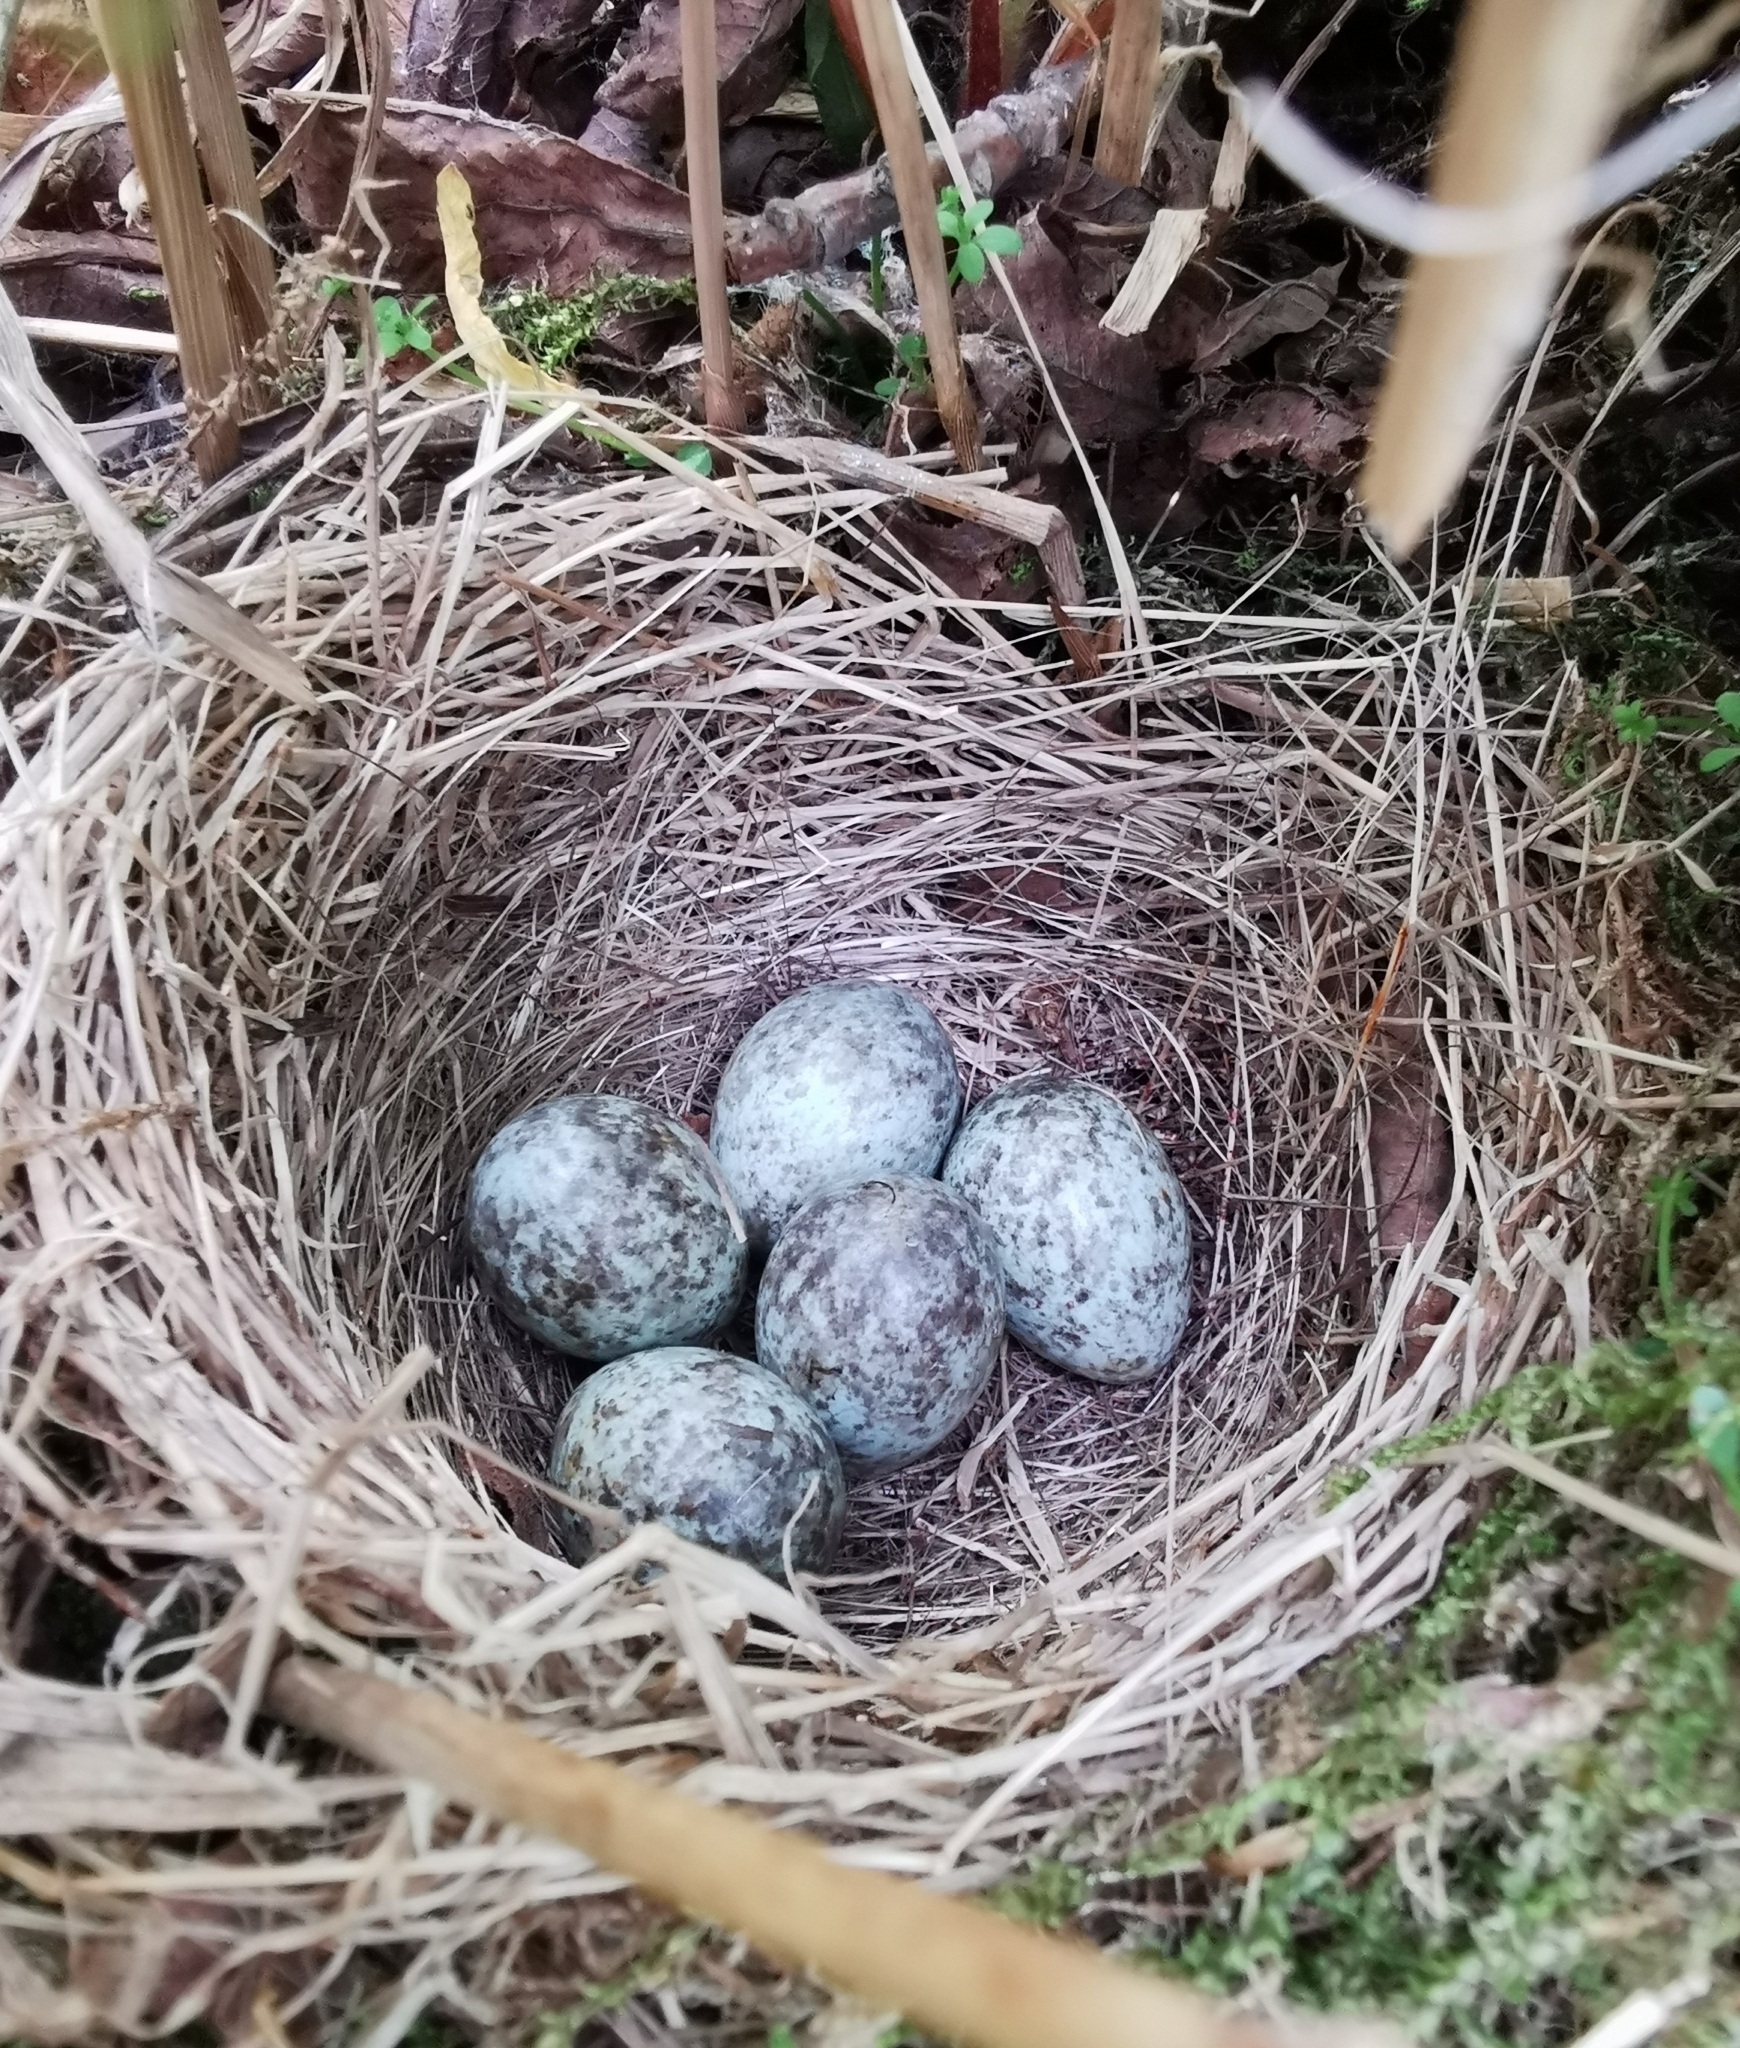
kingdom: Animalia
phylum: Chordata
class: Aves
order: Passeriformes
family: Emberizidae
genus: Emberiza
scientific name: Emberiza rustica
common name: Rustic bunting
